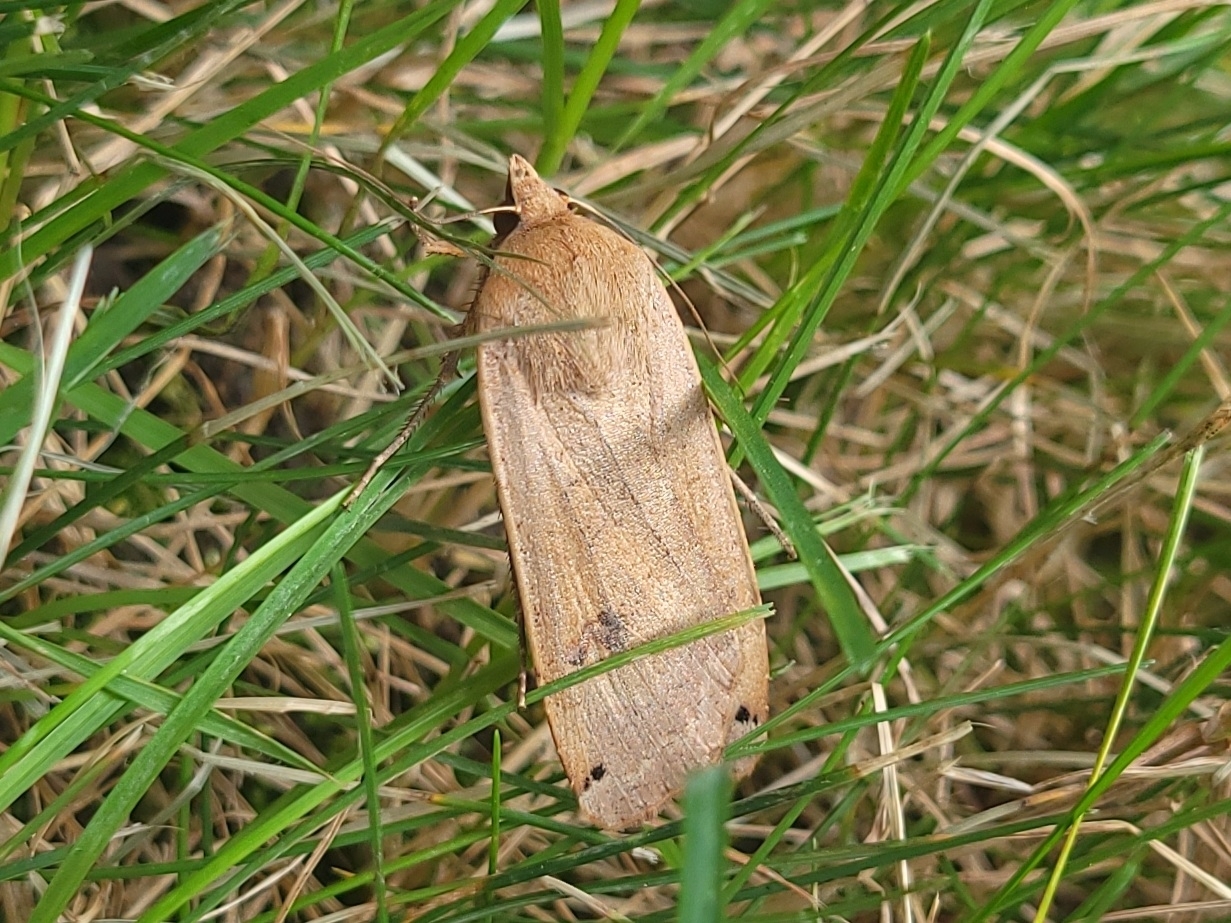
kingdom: Animalia
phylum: Arthropoda
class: Insecta
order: Lepidoptera
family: Noctuidae
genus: Noctua
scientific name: Noctua pronuba
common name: Large yellow underwing
